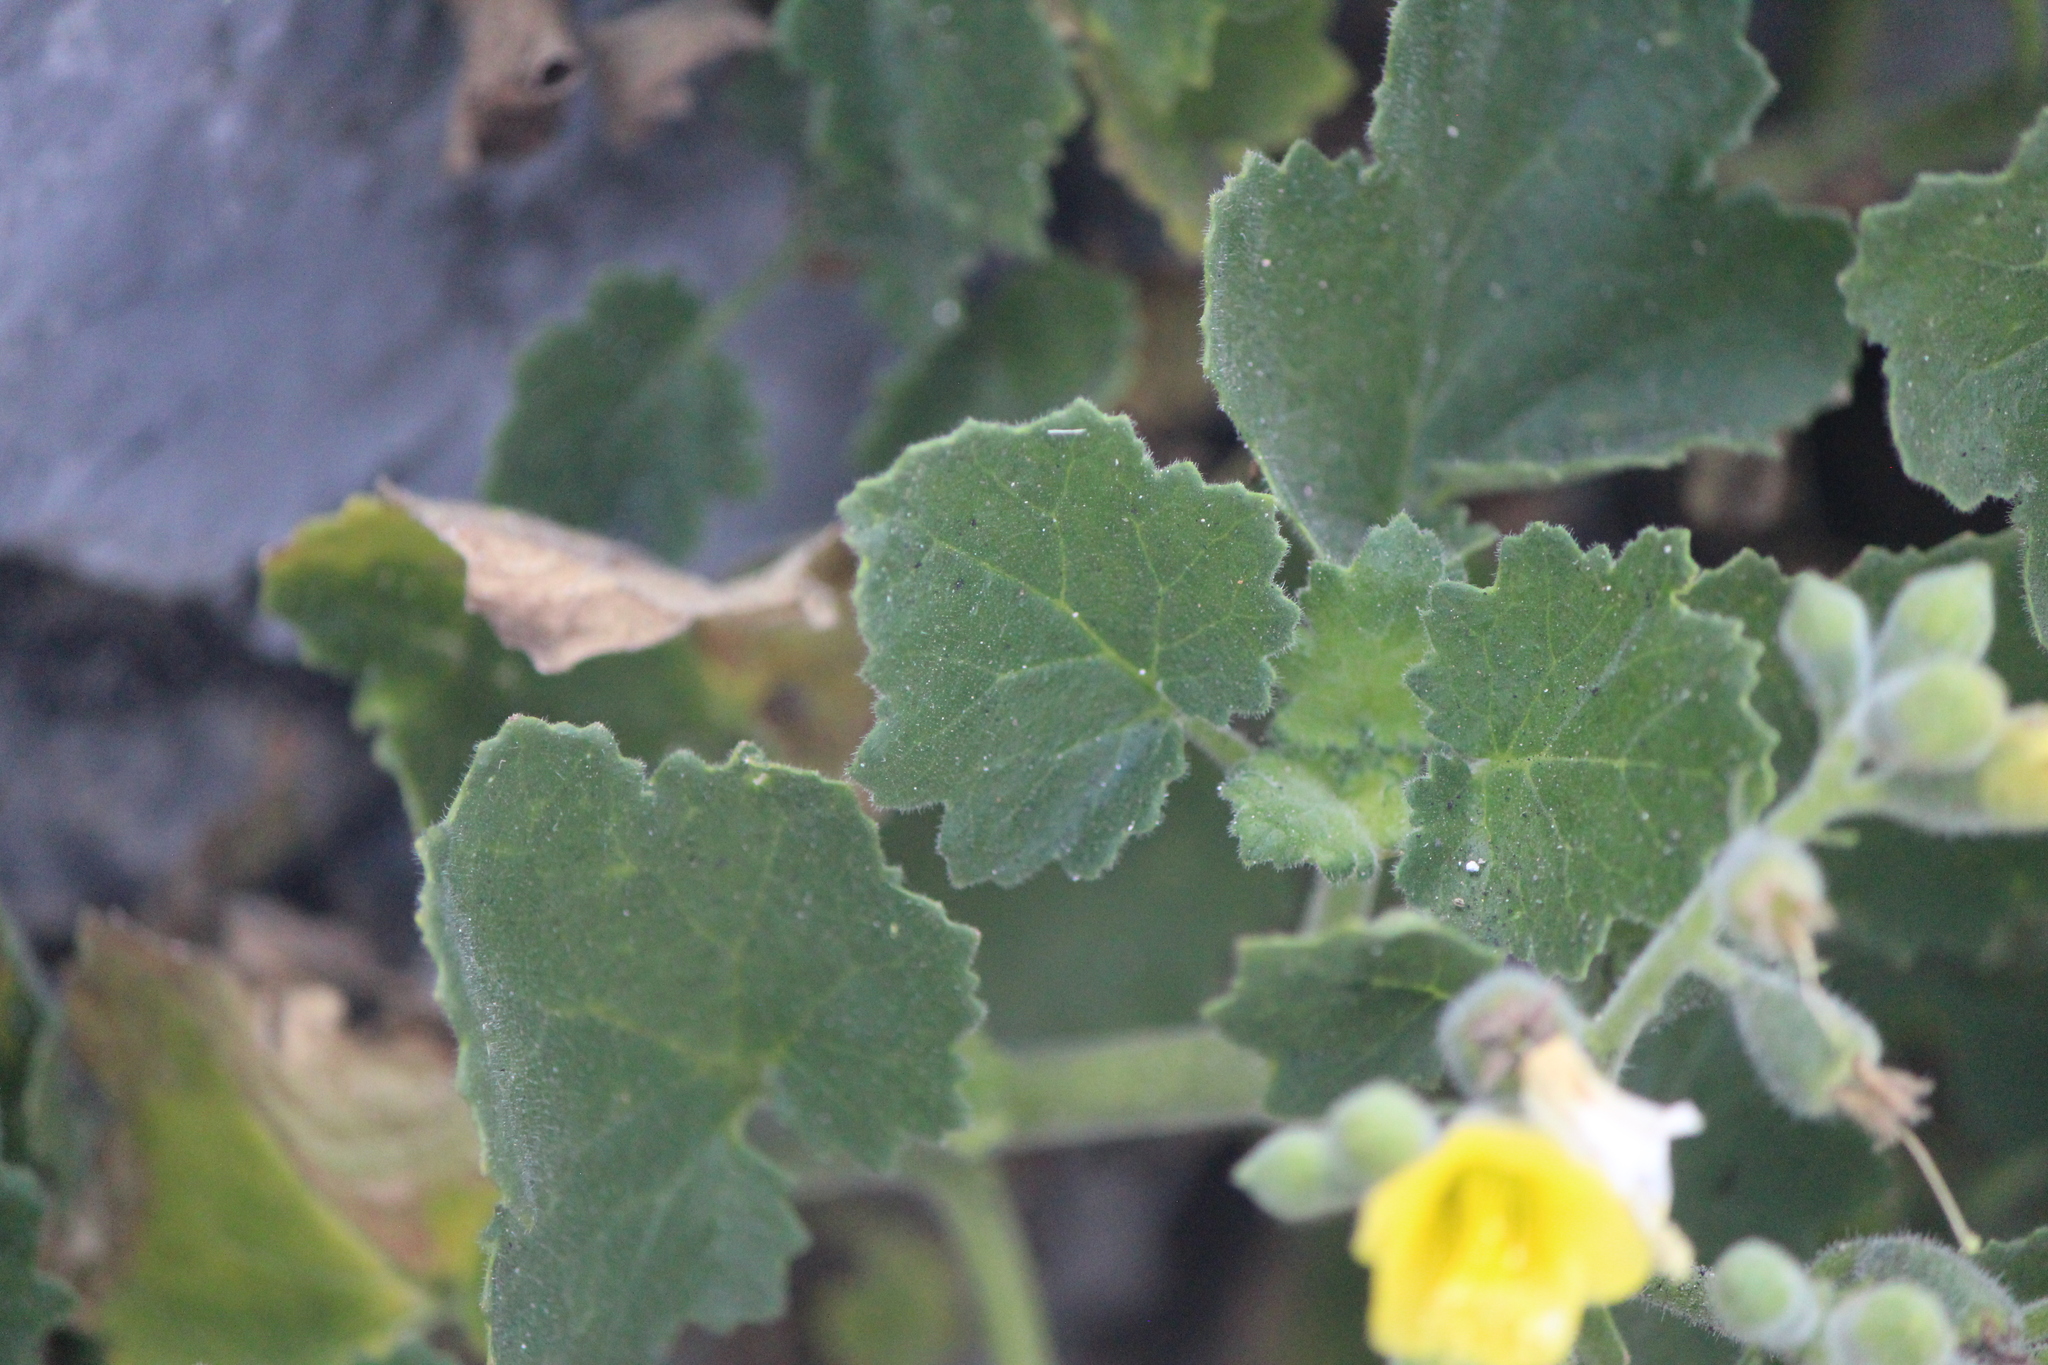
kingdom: Plantae
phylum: Tracheophyta
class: Magnoliopsida
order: Cornales
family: Loasaceae
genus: Eucnide
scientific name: Eucnide hirta
